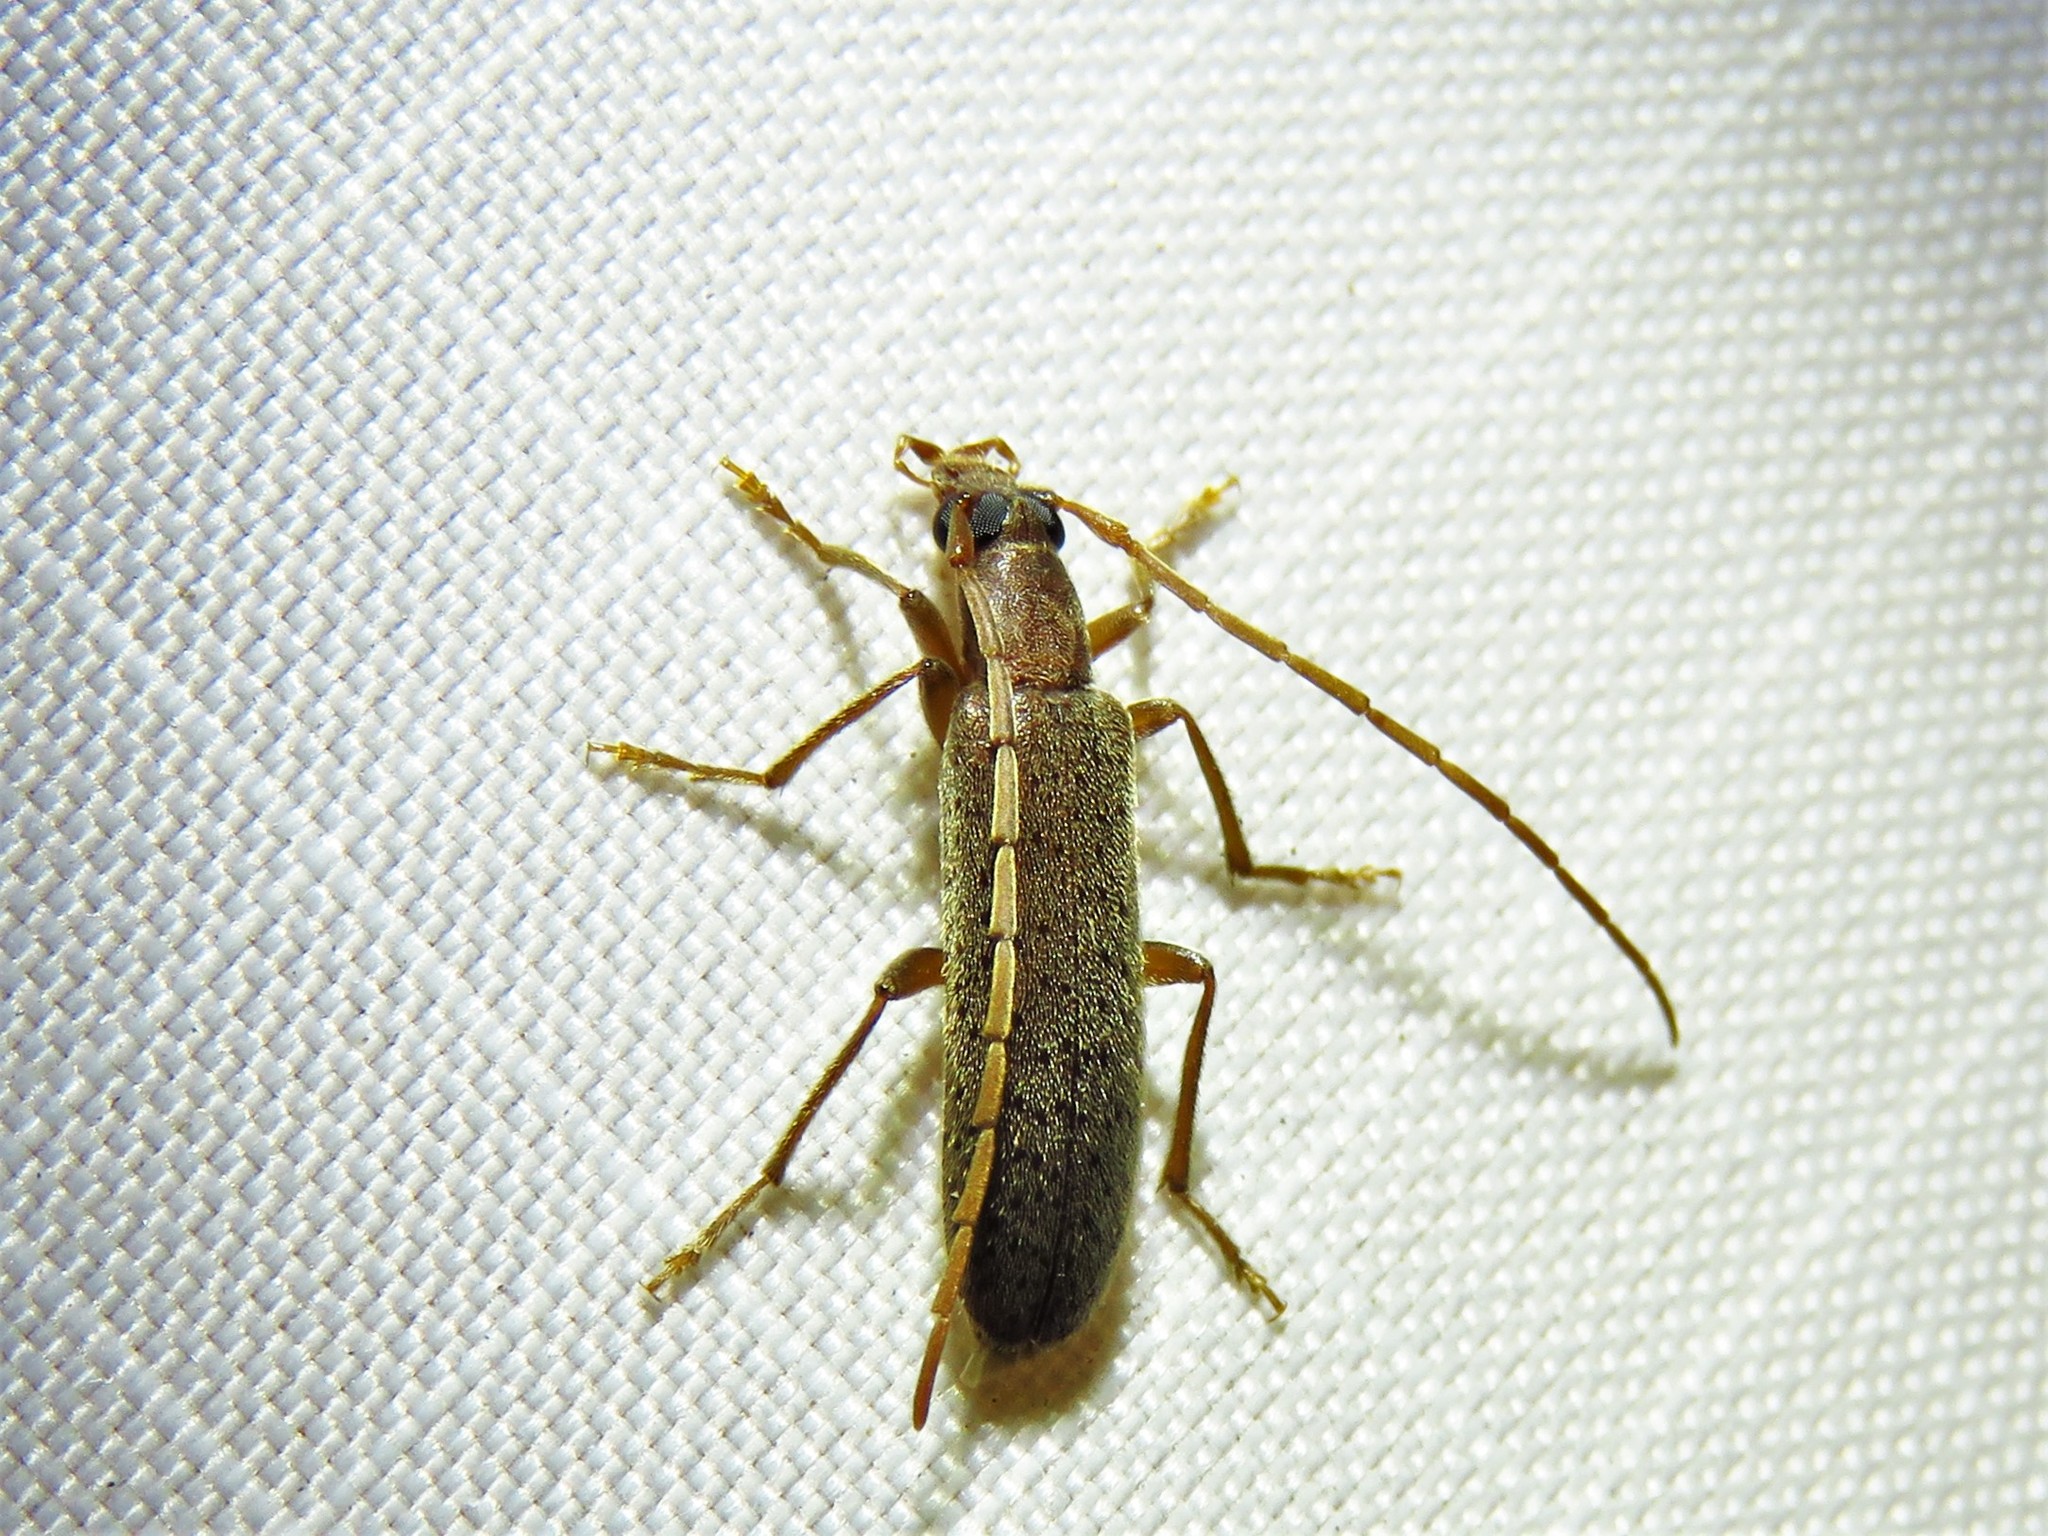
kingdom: Animalia
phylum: Arthropoda
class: Insecta
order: Coleoptera
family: Oedemeridae
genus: Sparedrus
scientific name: Sparedrus aspersus
